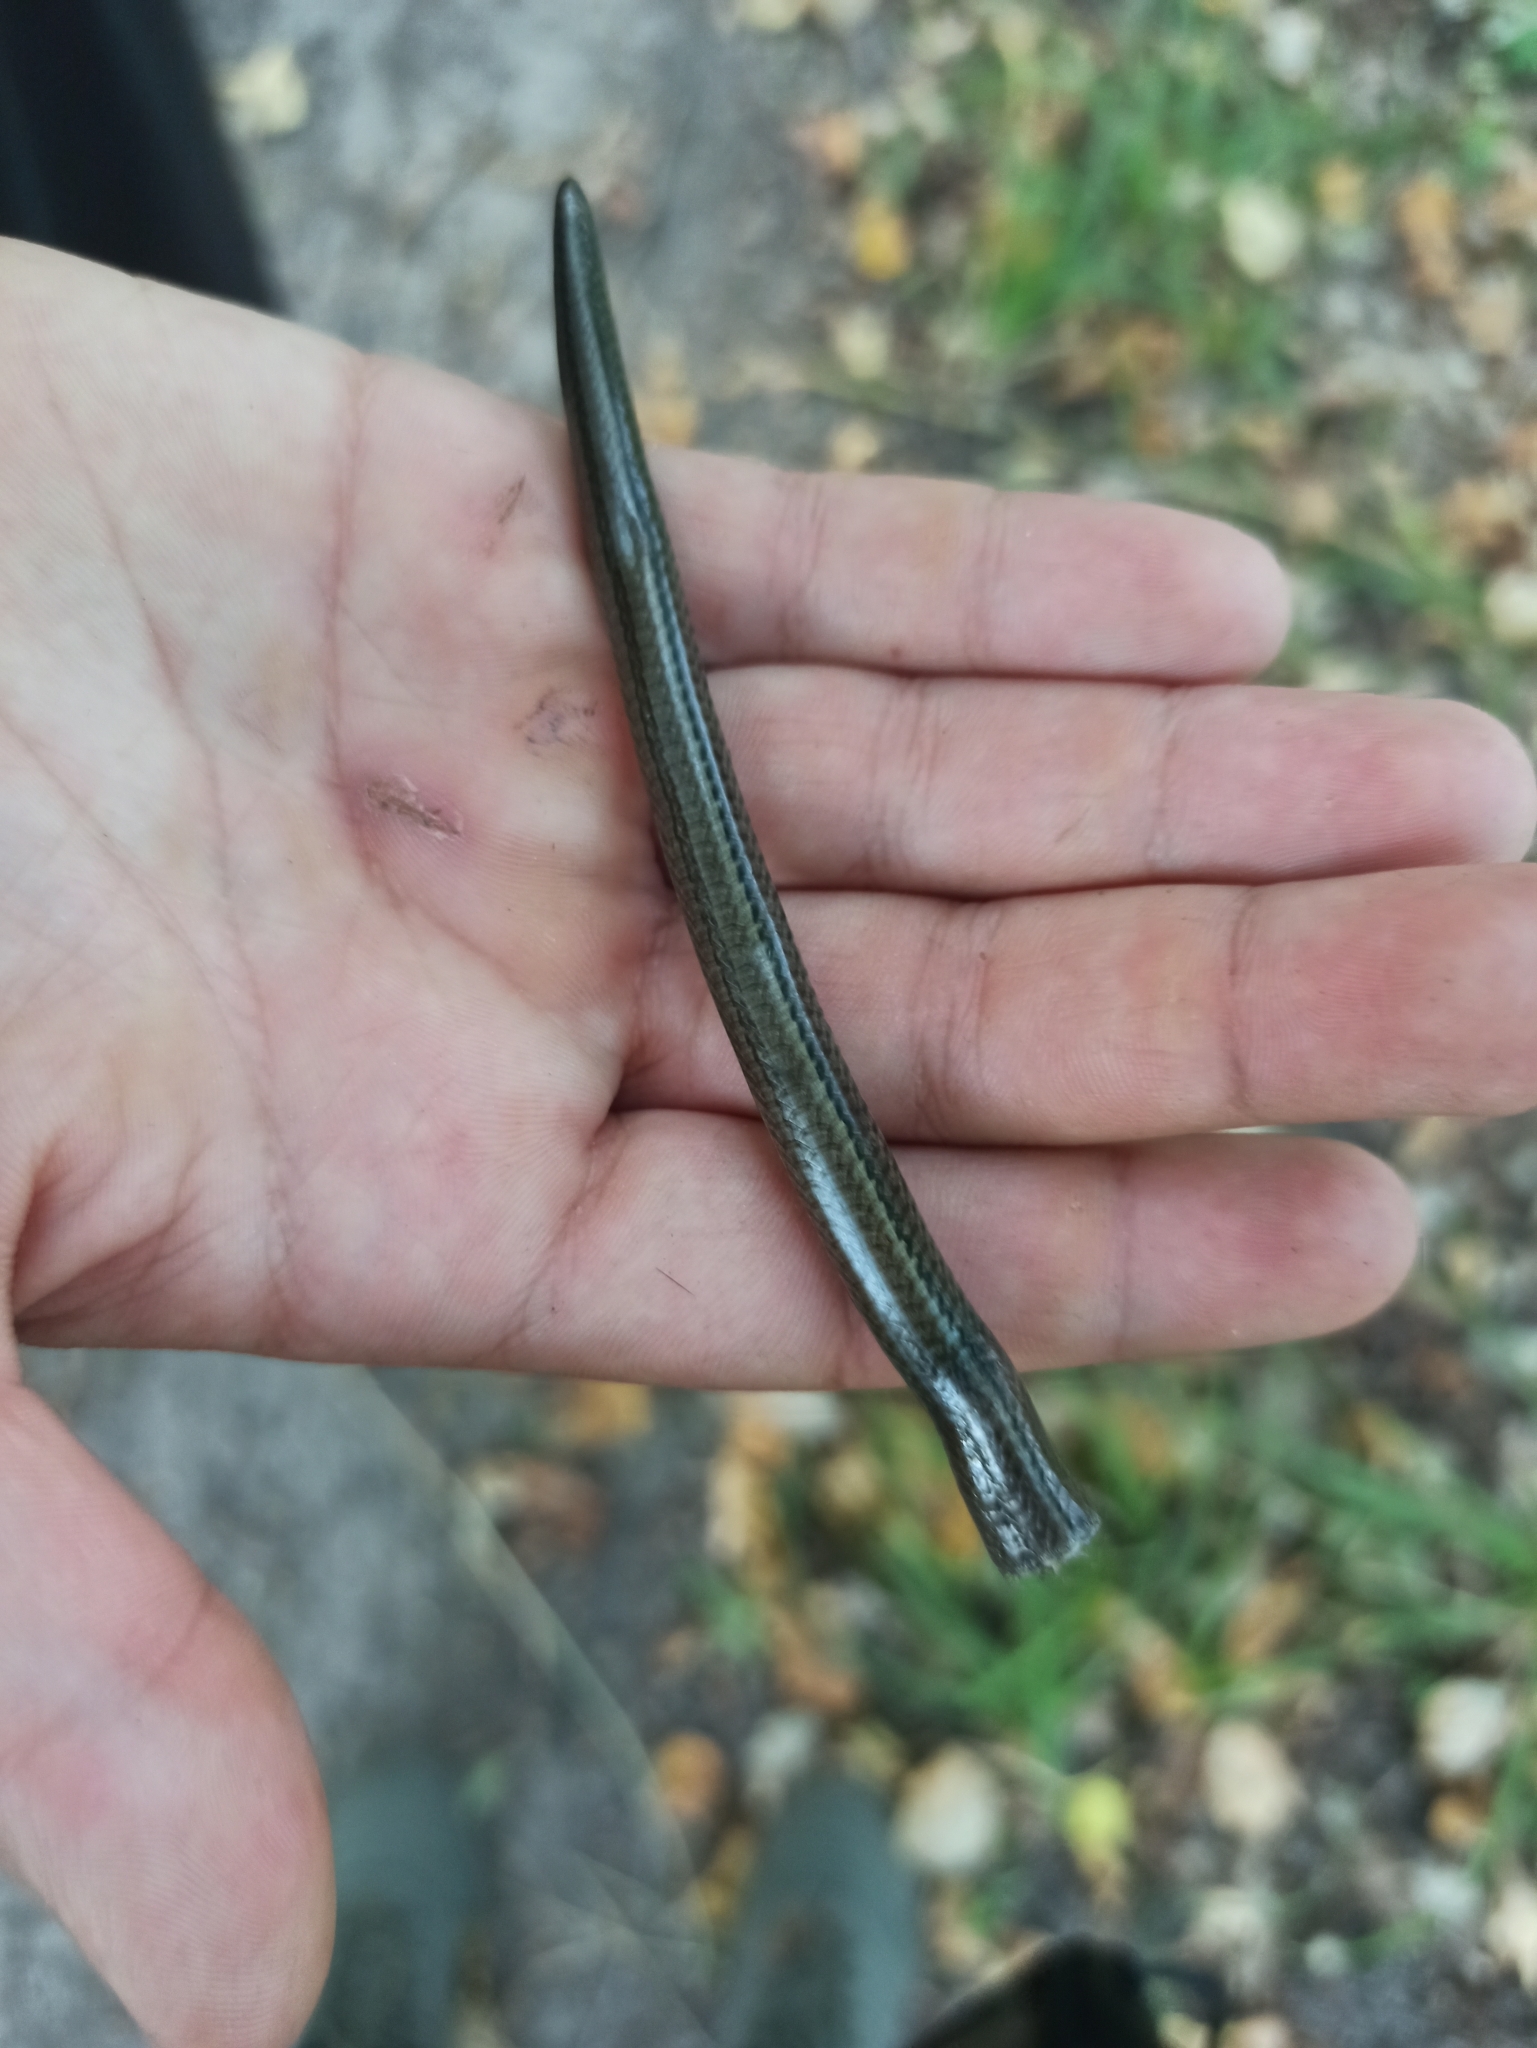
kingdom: Animalia
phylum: Chordata
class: Squamata
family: Anguidae
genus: Anguis
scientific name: Anguis colchica
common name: Slow worm
